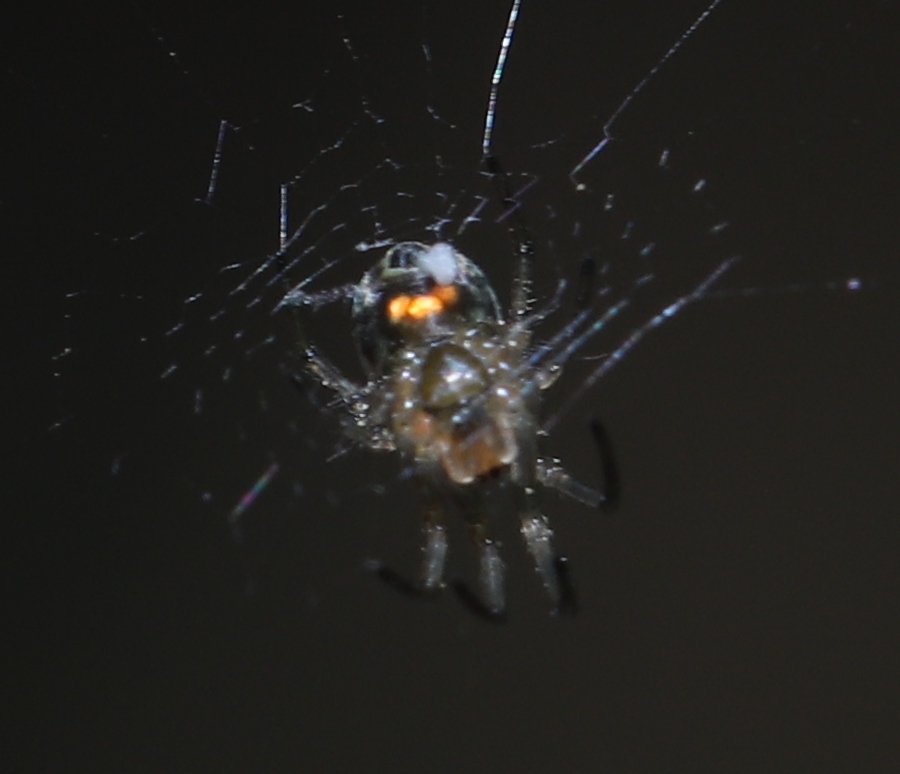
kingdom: Animalia
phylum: Arthropoda
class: Arachnida
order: Araneae
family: Tetragnathidae
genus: Leucauge
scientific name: Leucauge venusta
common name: Longjawed orb weavers
